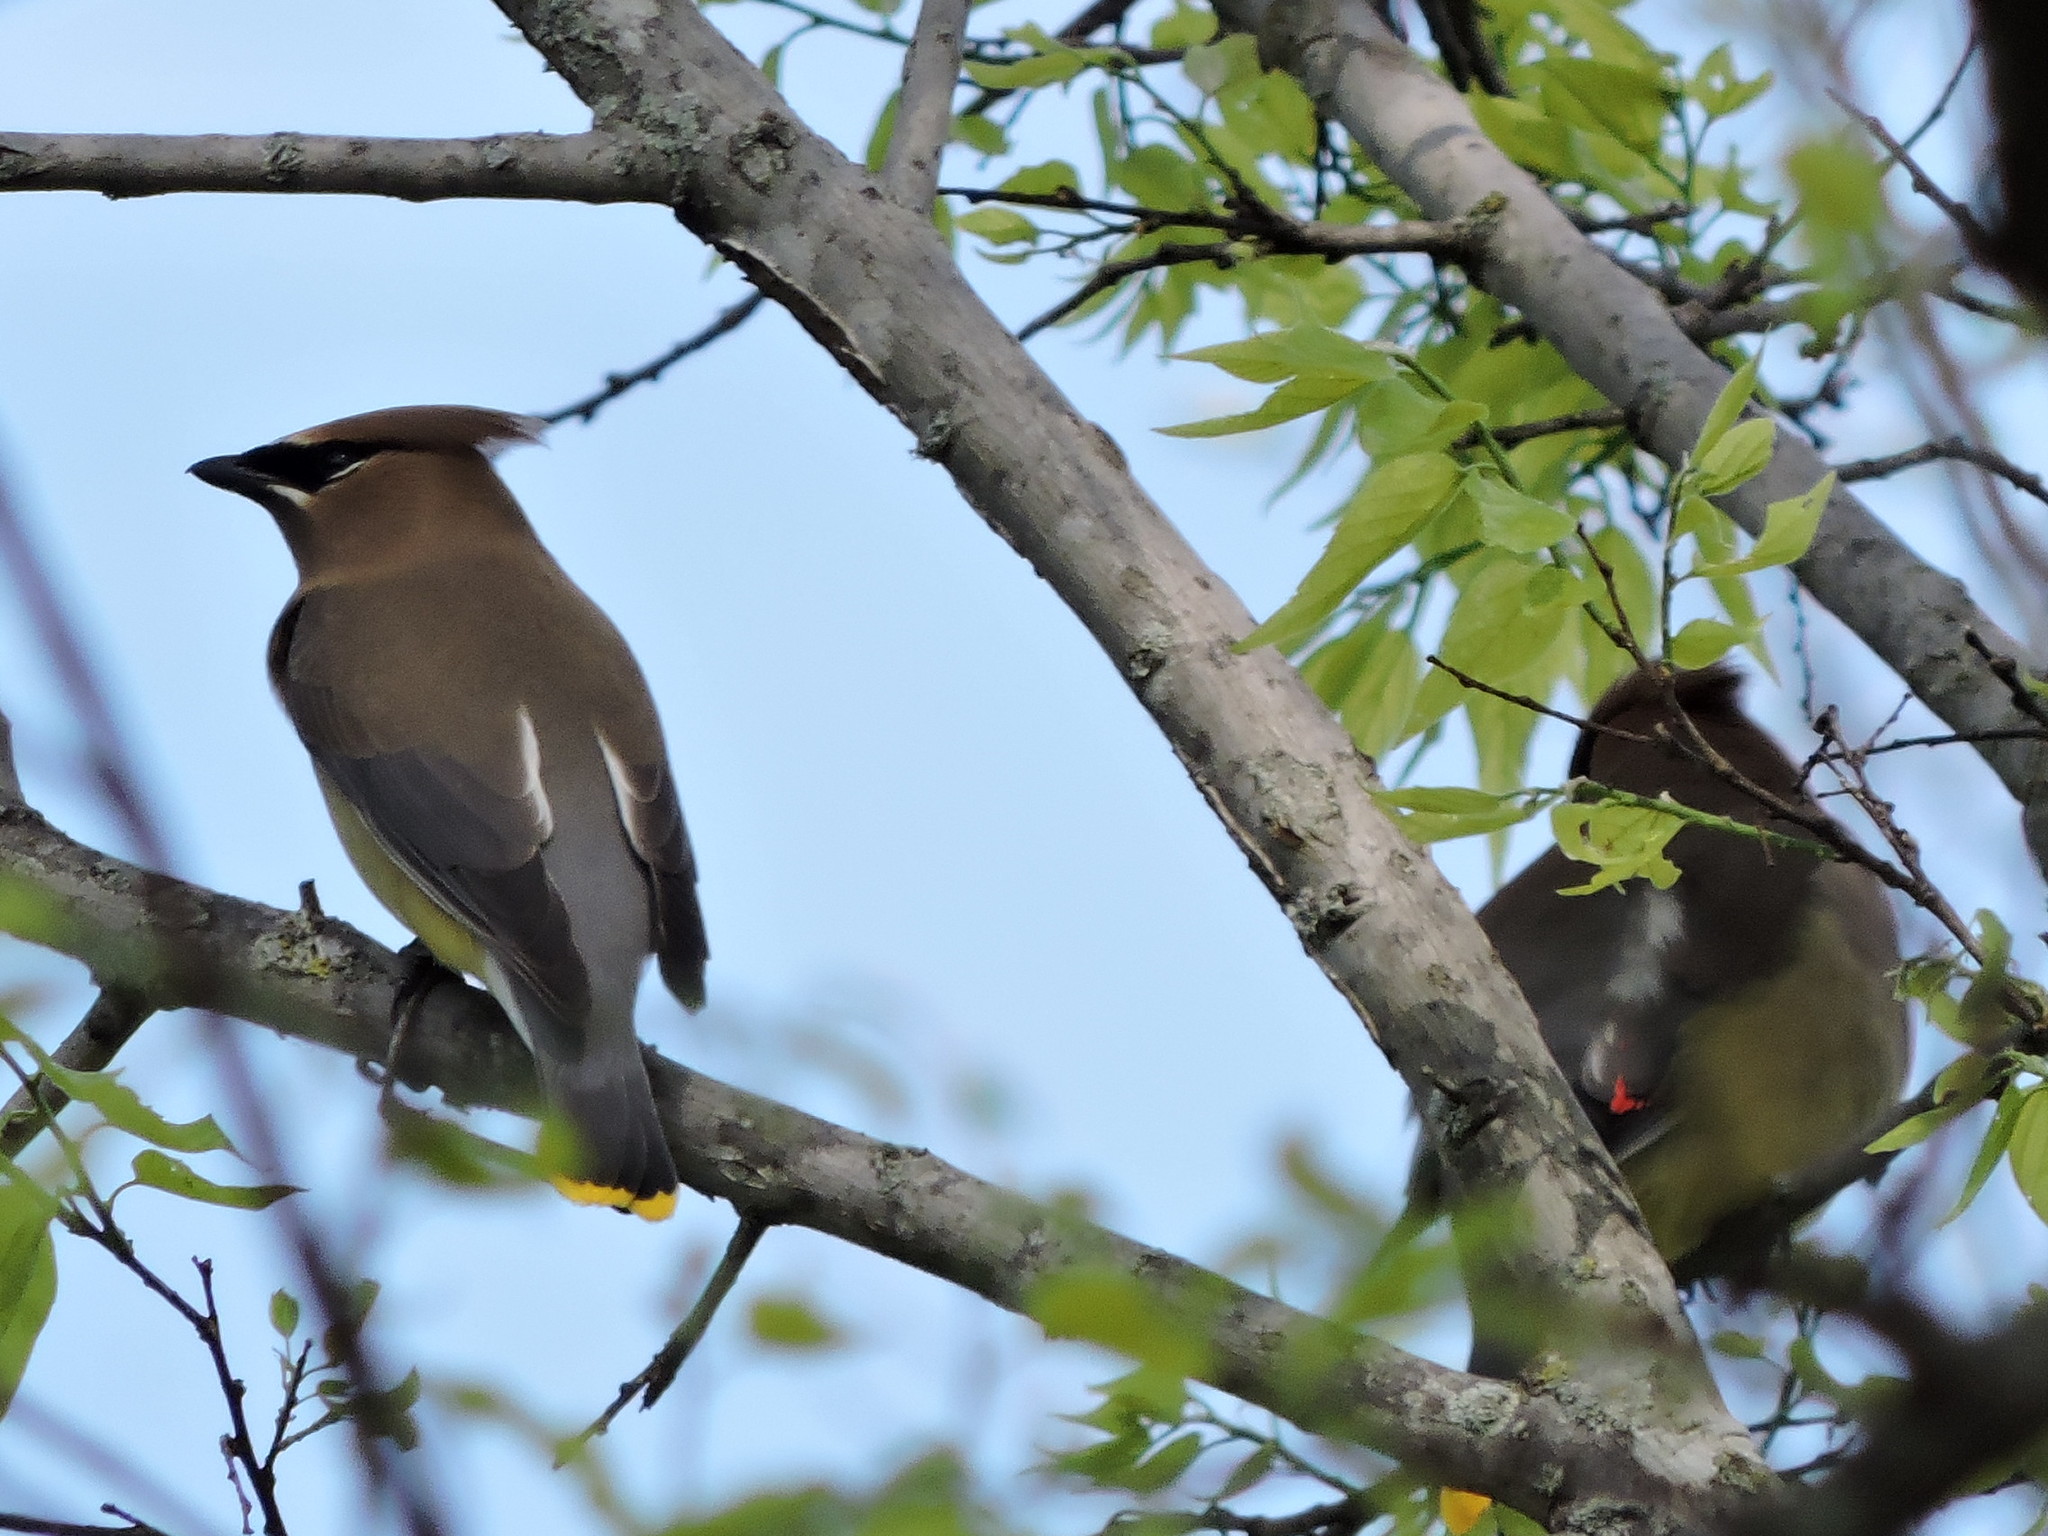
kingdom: Animalia
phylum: Chordata
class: Aves
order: Passeriformes
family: Bombycillidae
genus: Bombycilla
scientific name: Bombycilla cedrorum
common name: Cedar waxwing
